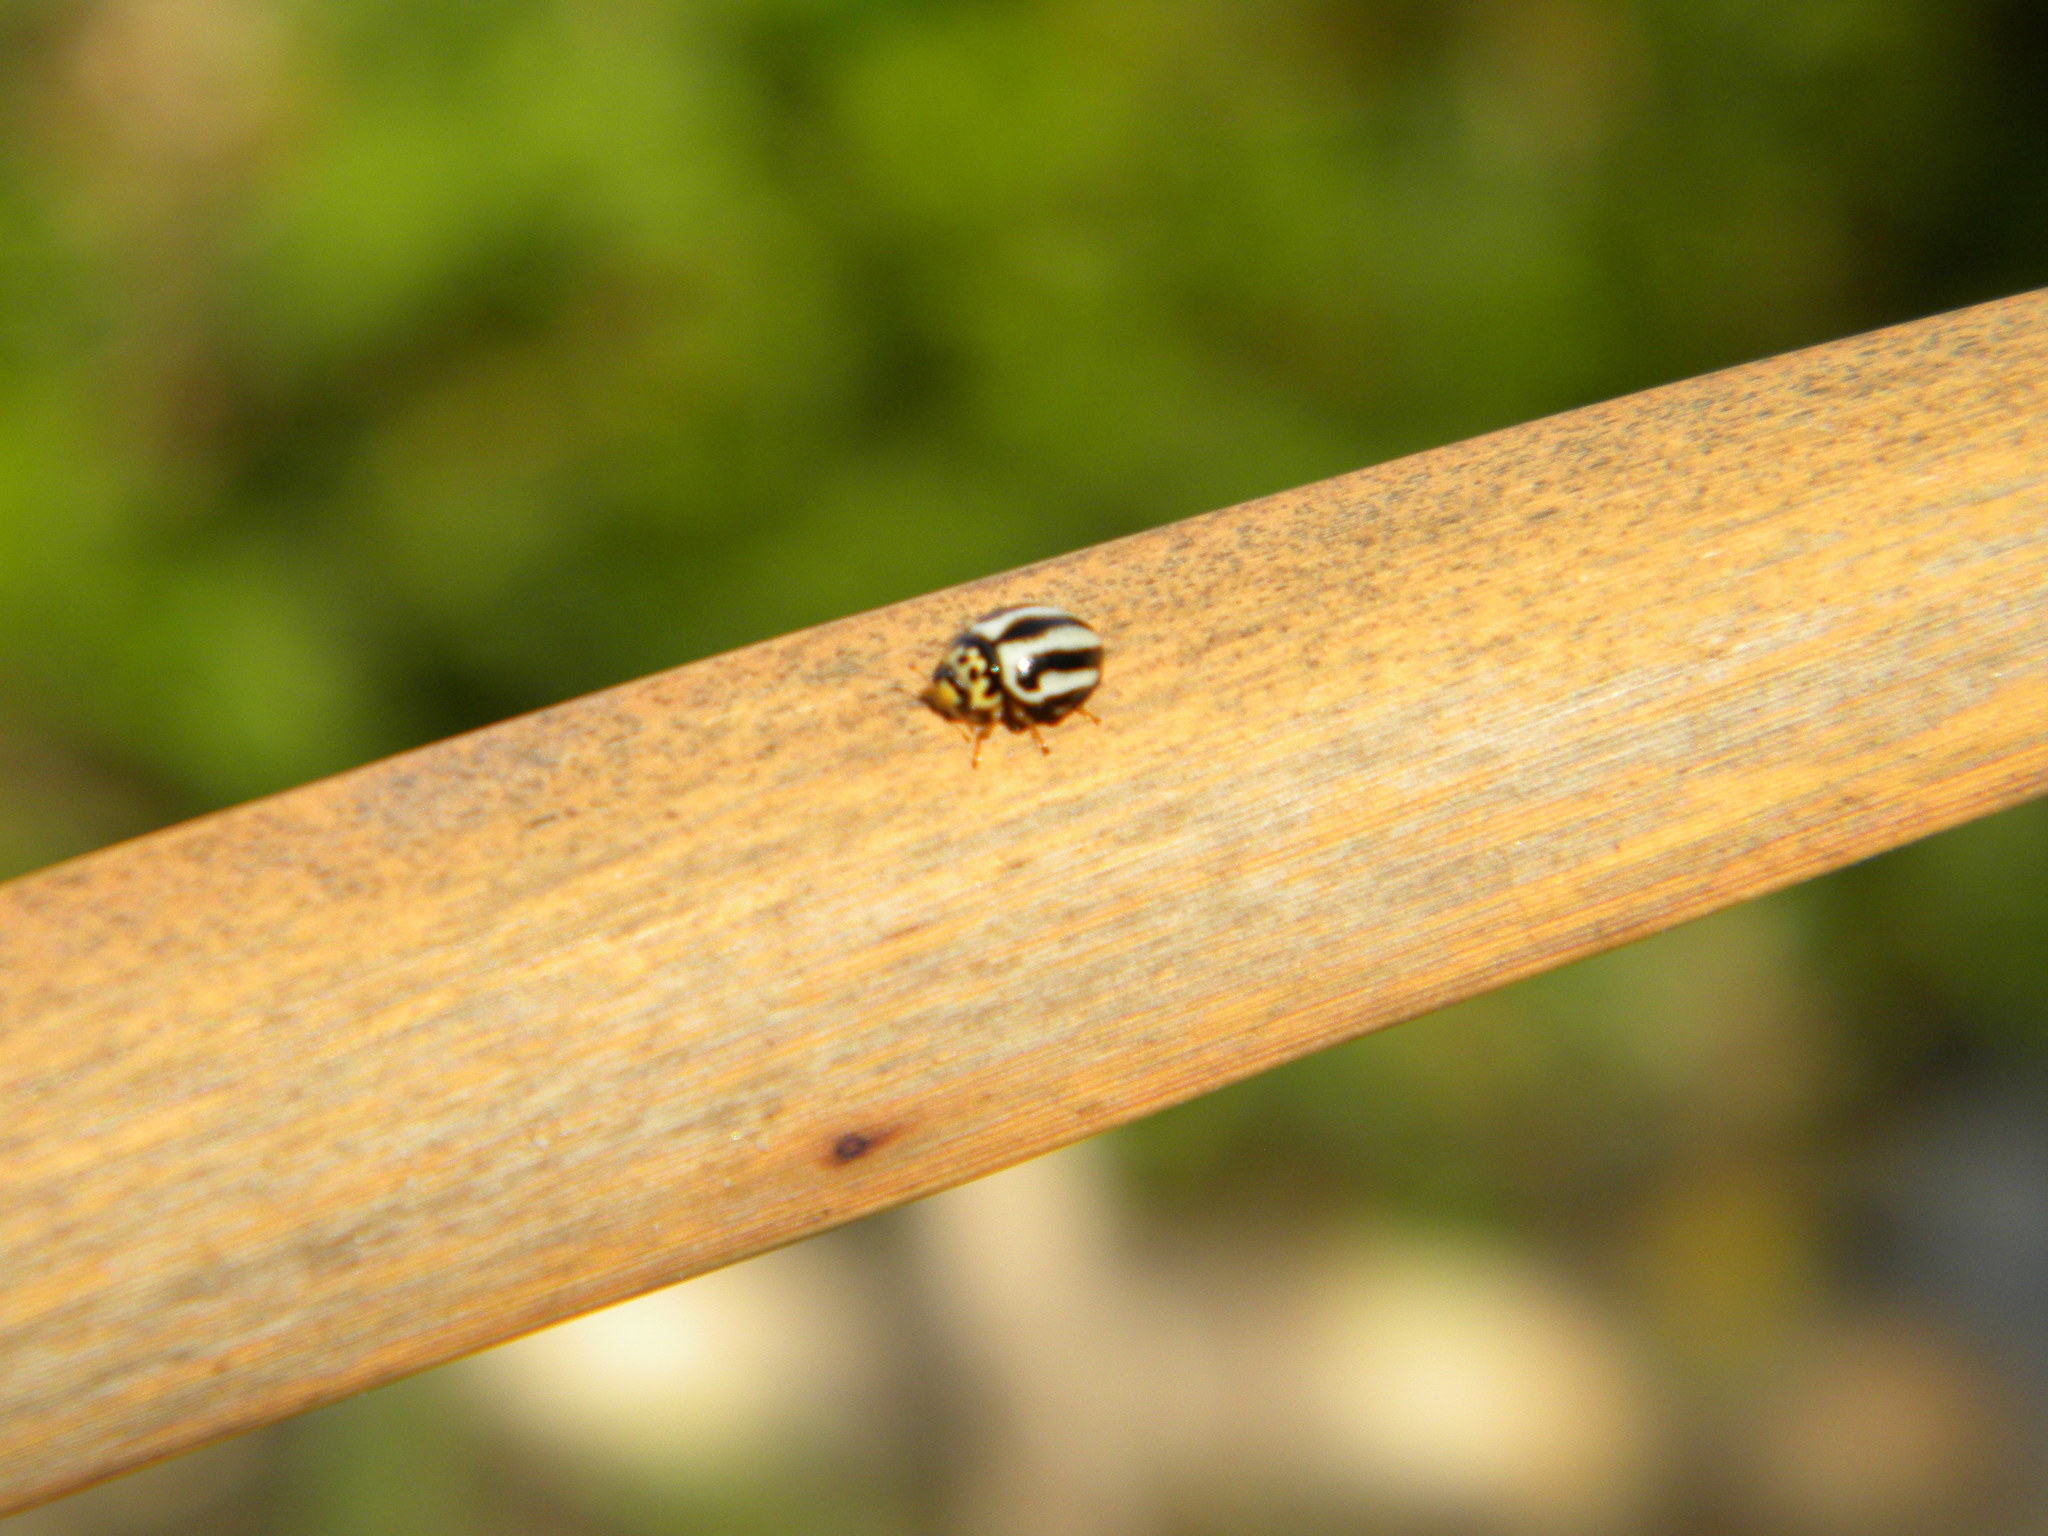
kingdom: Animalia
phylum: Arthropoda
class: Insecta
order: Coleoptera
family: Coccinellidae
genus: Micraspis
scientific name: Micraspis
